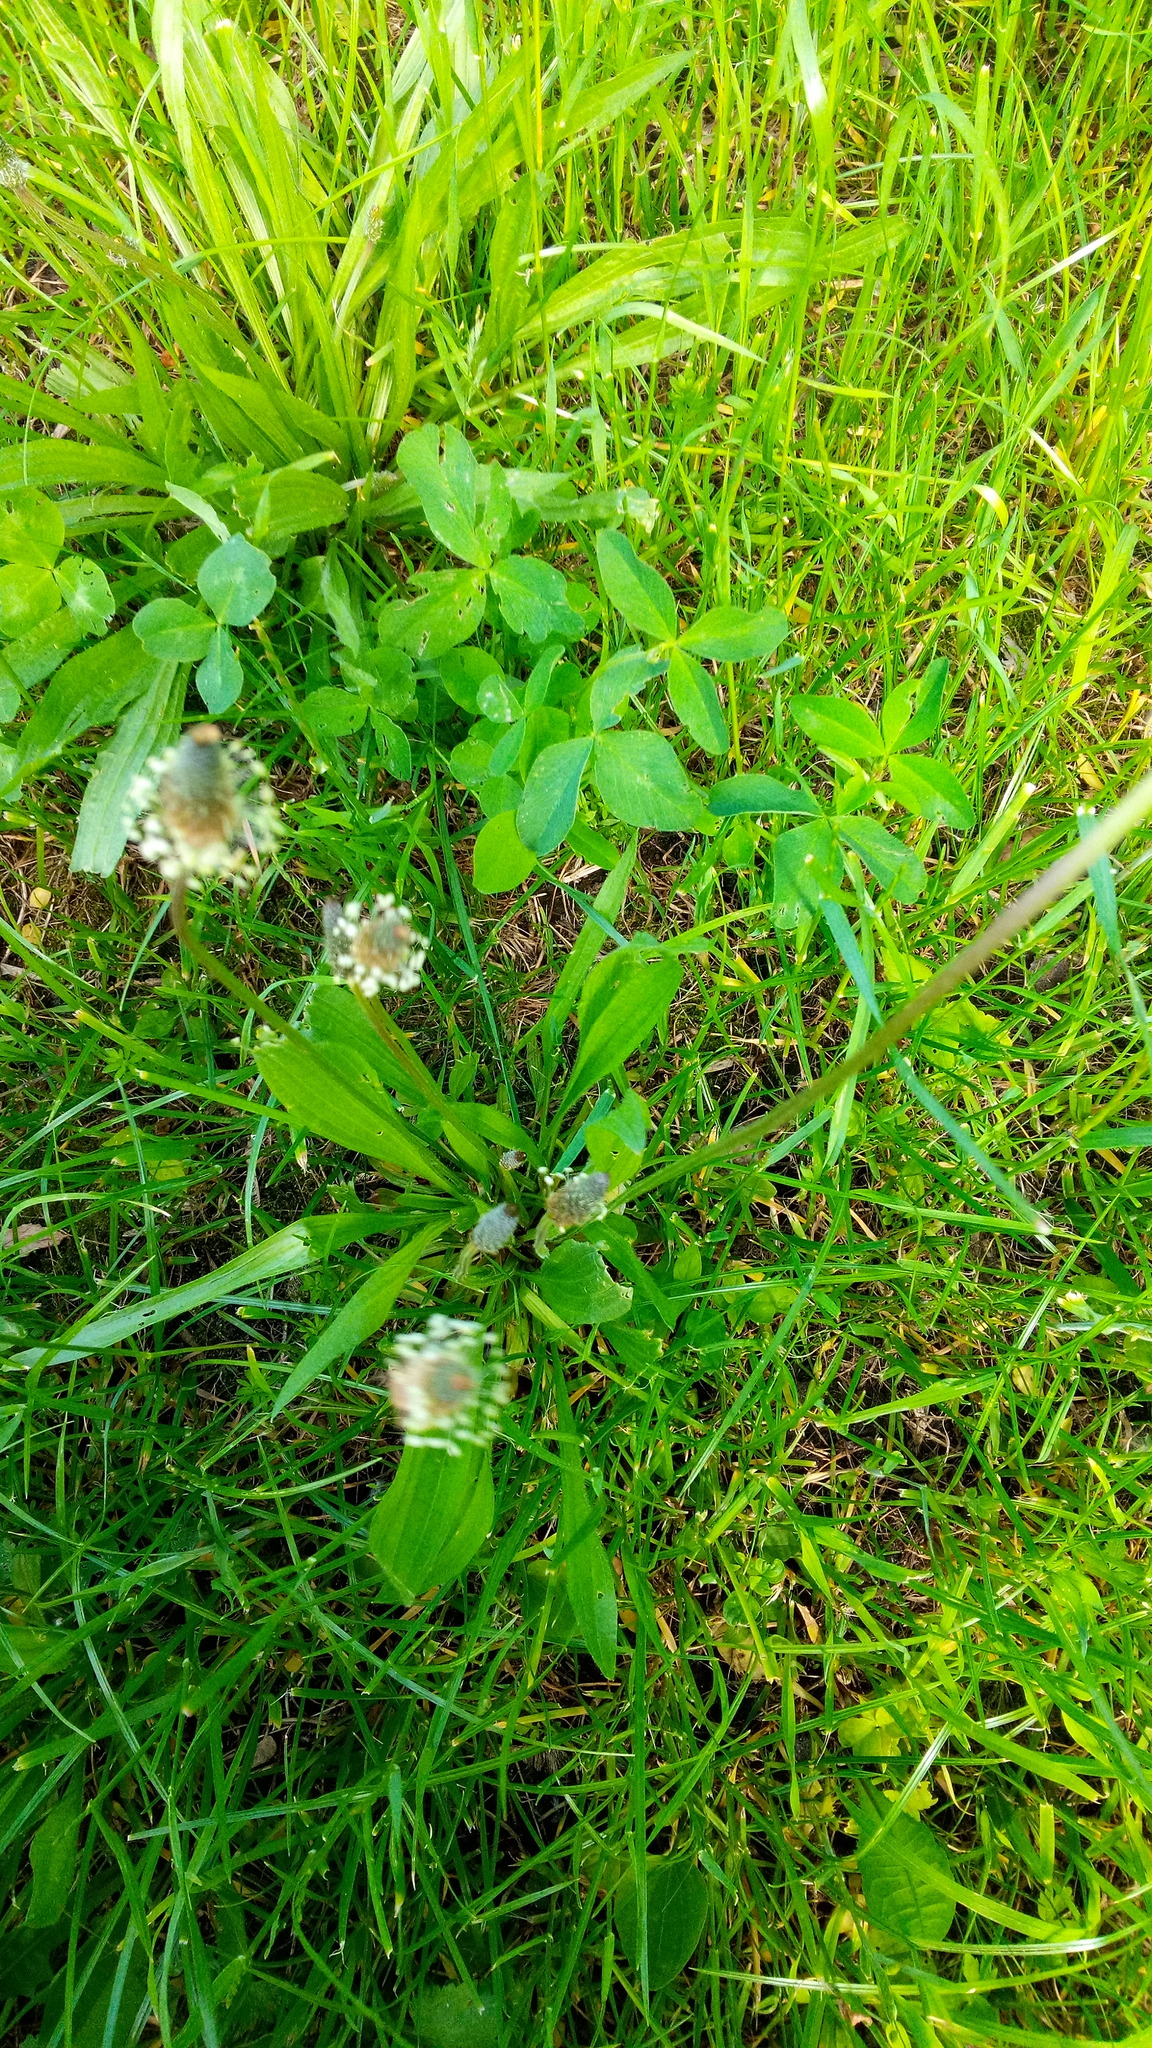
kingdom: Plantae
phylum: Tracheophyta
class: Magnoliopsida
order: Lamiales
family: Plantaginaceae
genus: Plantago
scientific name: Plantago lanceolata
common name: Ribwort plantain
